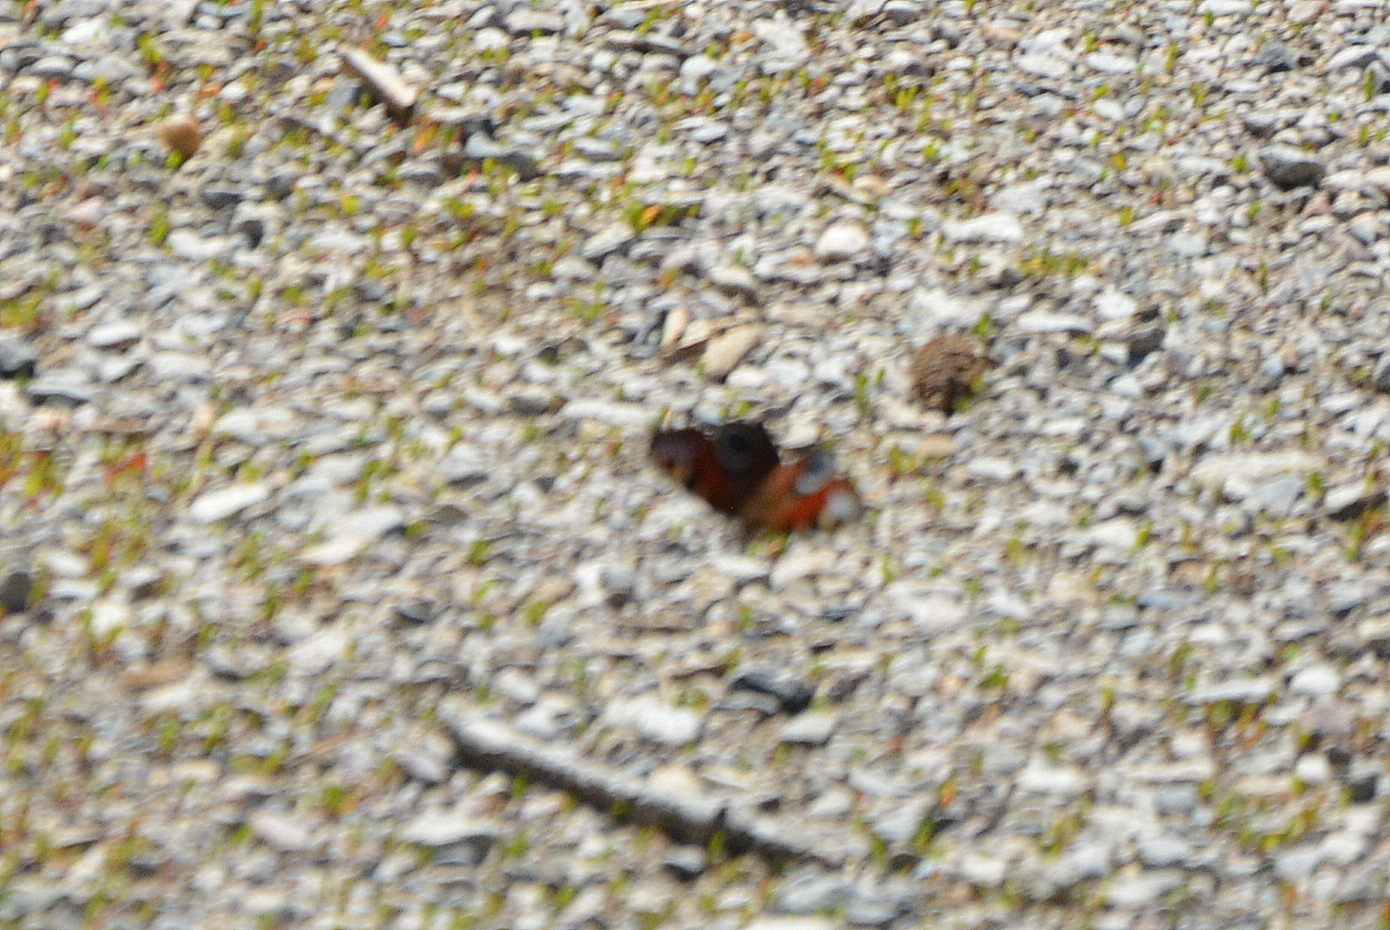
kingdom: Animalia
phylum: Arthropoda
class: Insecta
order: Lepidoptera
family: Nymphalidae
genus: Aglais
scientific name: Aglais io
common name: Peacock
